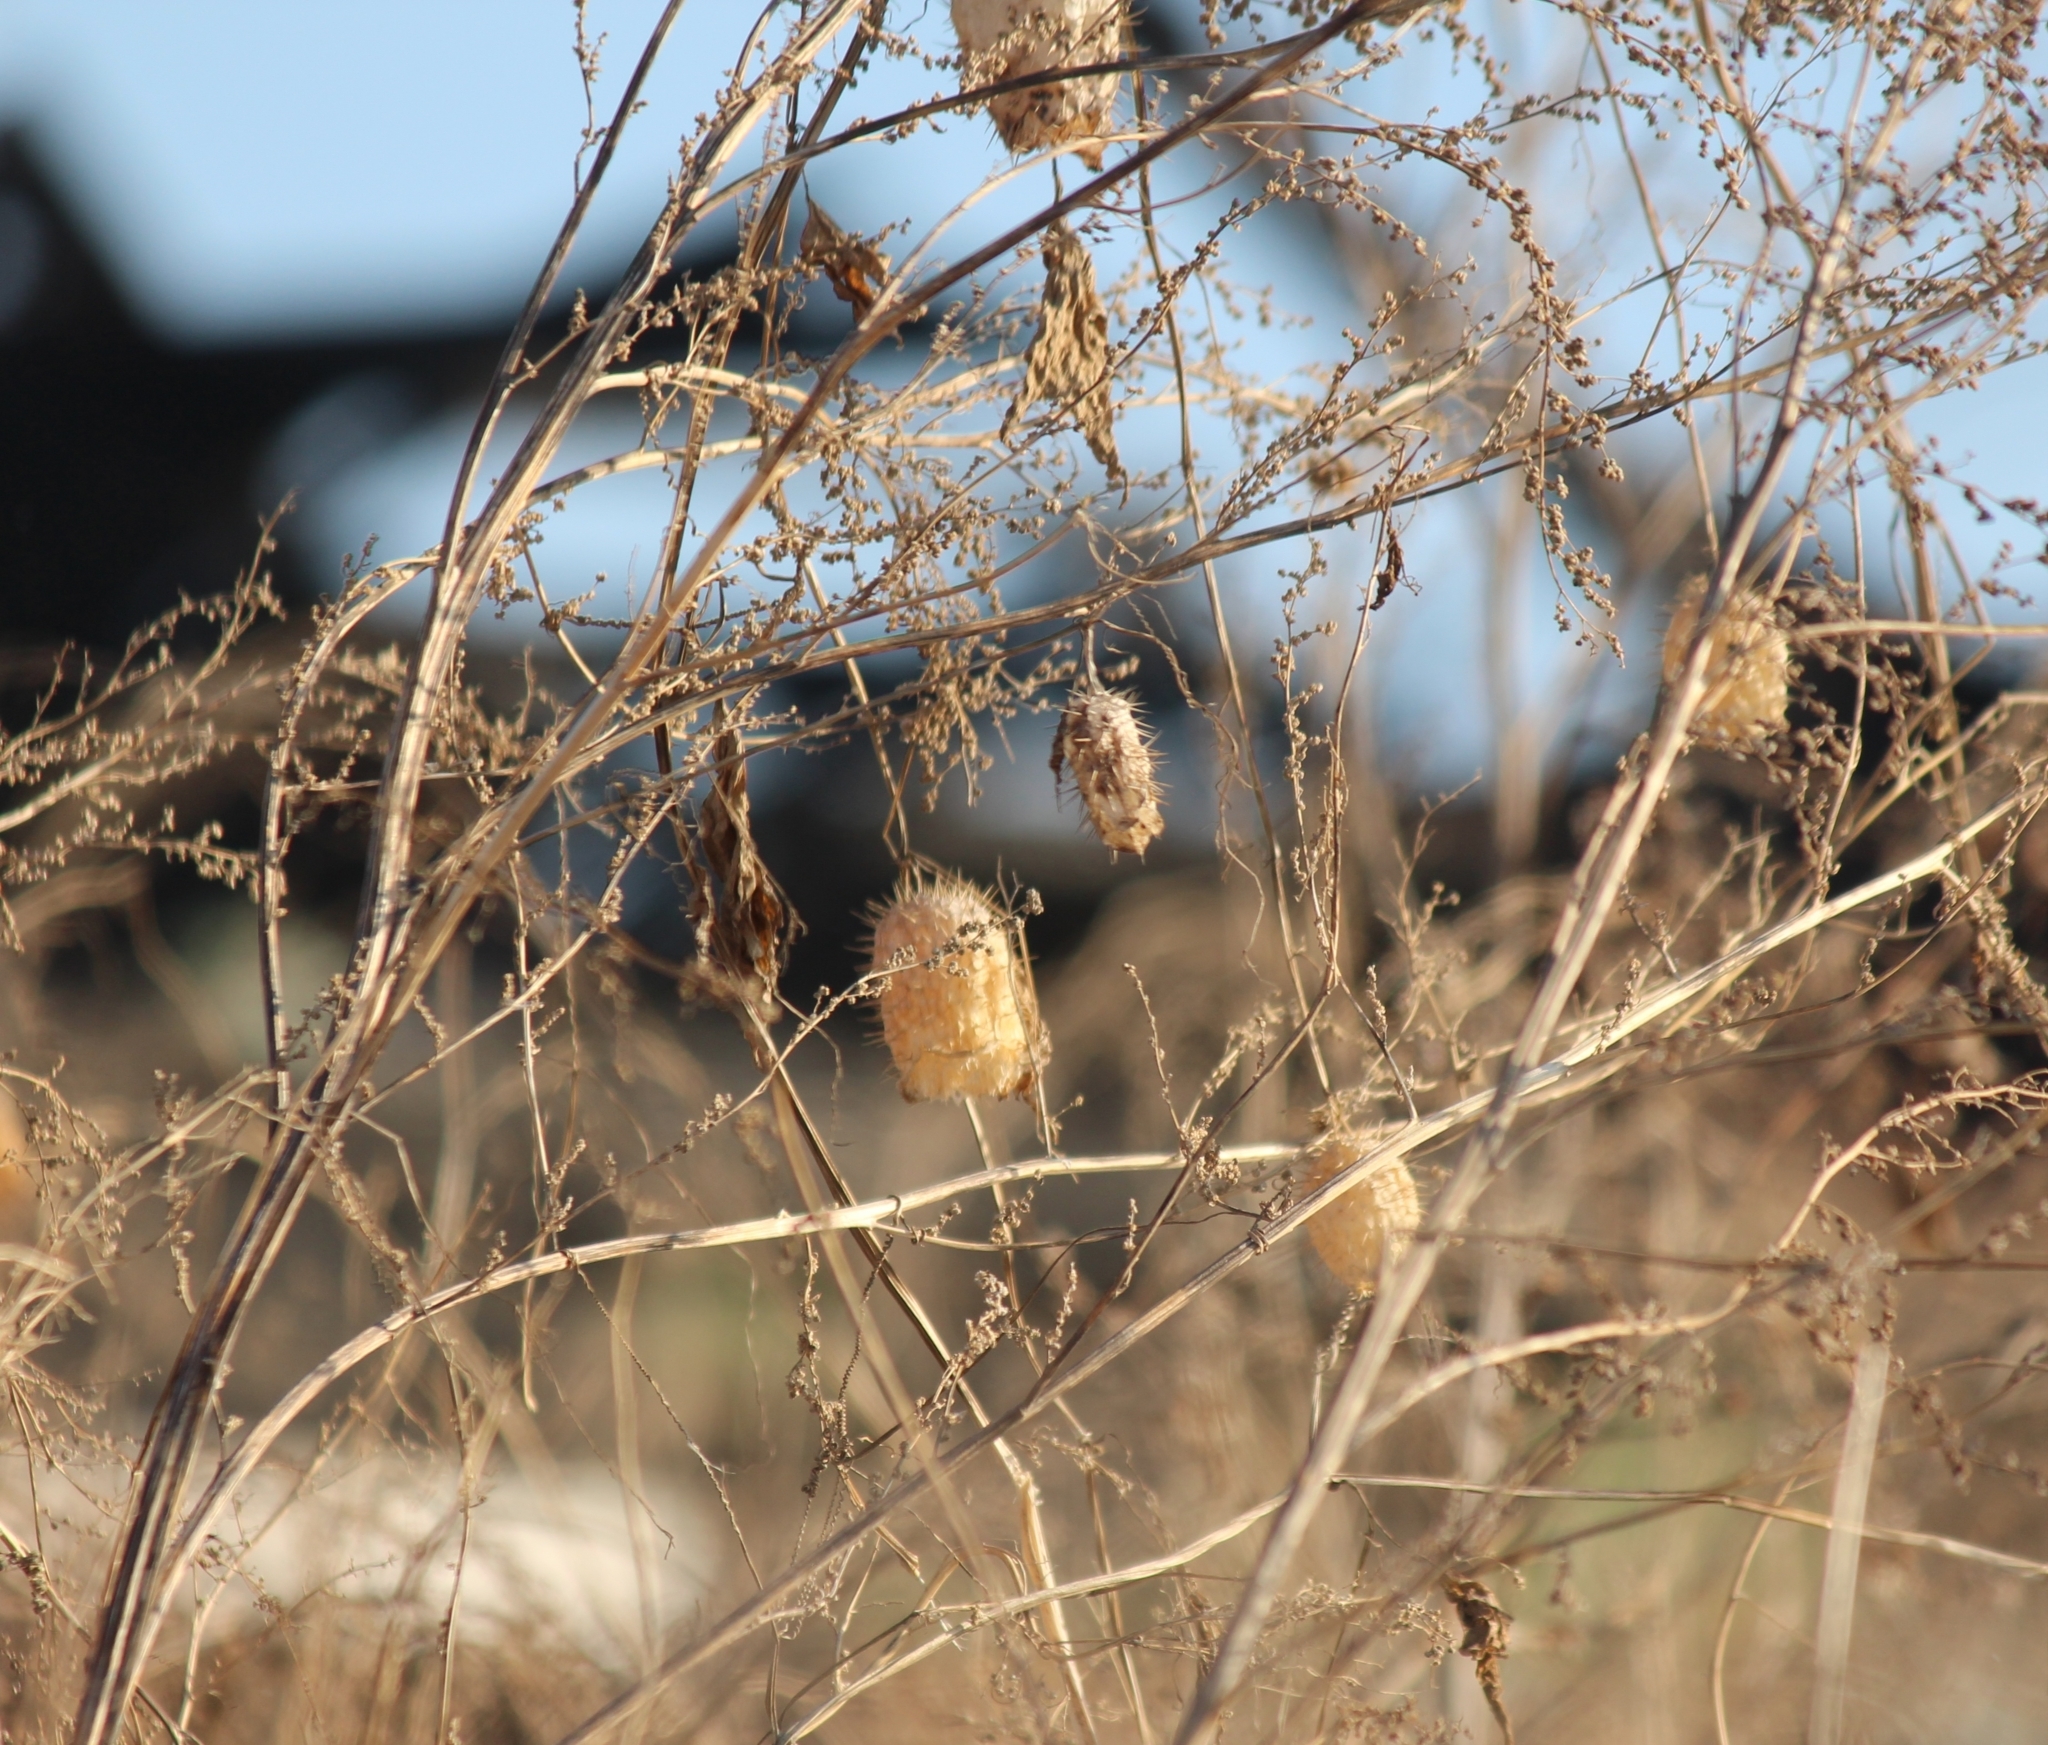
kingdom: Plantae
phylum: Tracheophyta
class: Magnoliopsida
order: Cucurbitales
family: Cucurbitaceae
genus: Echinocystis
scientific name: Echinocystis lobata
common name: Wild cucumber
